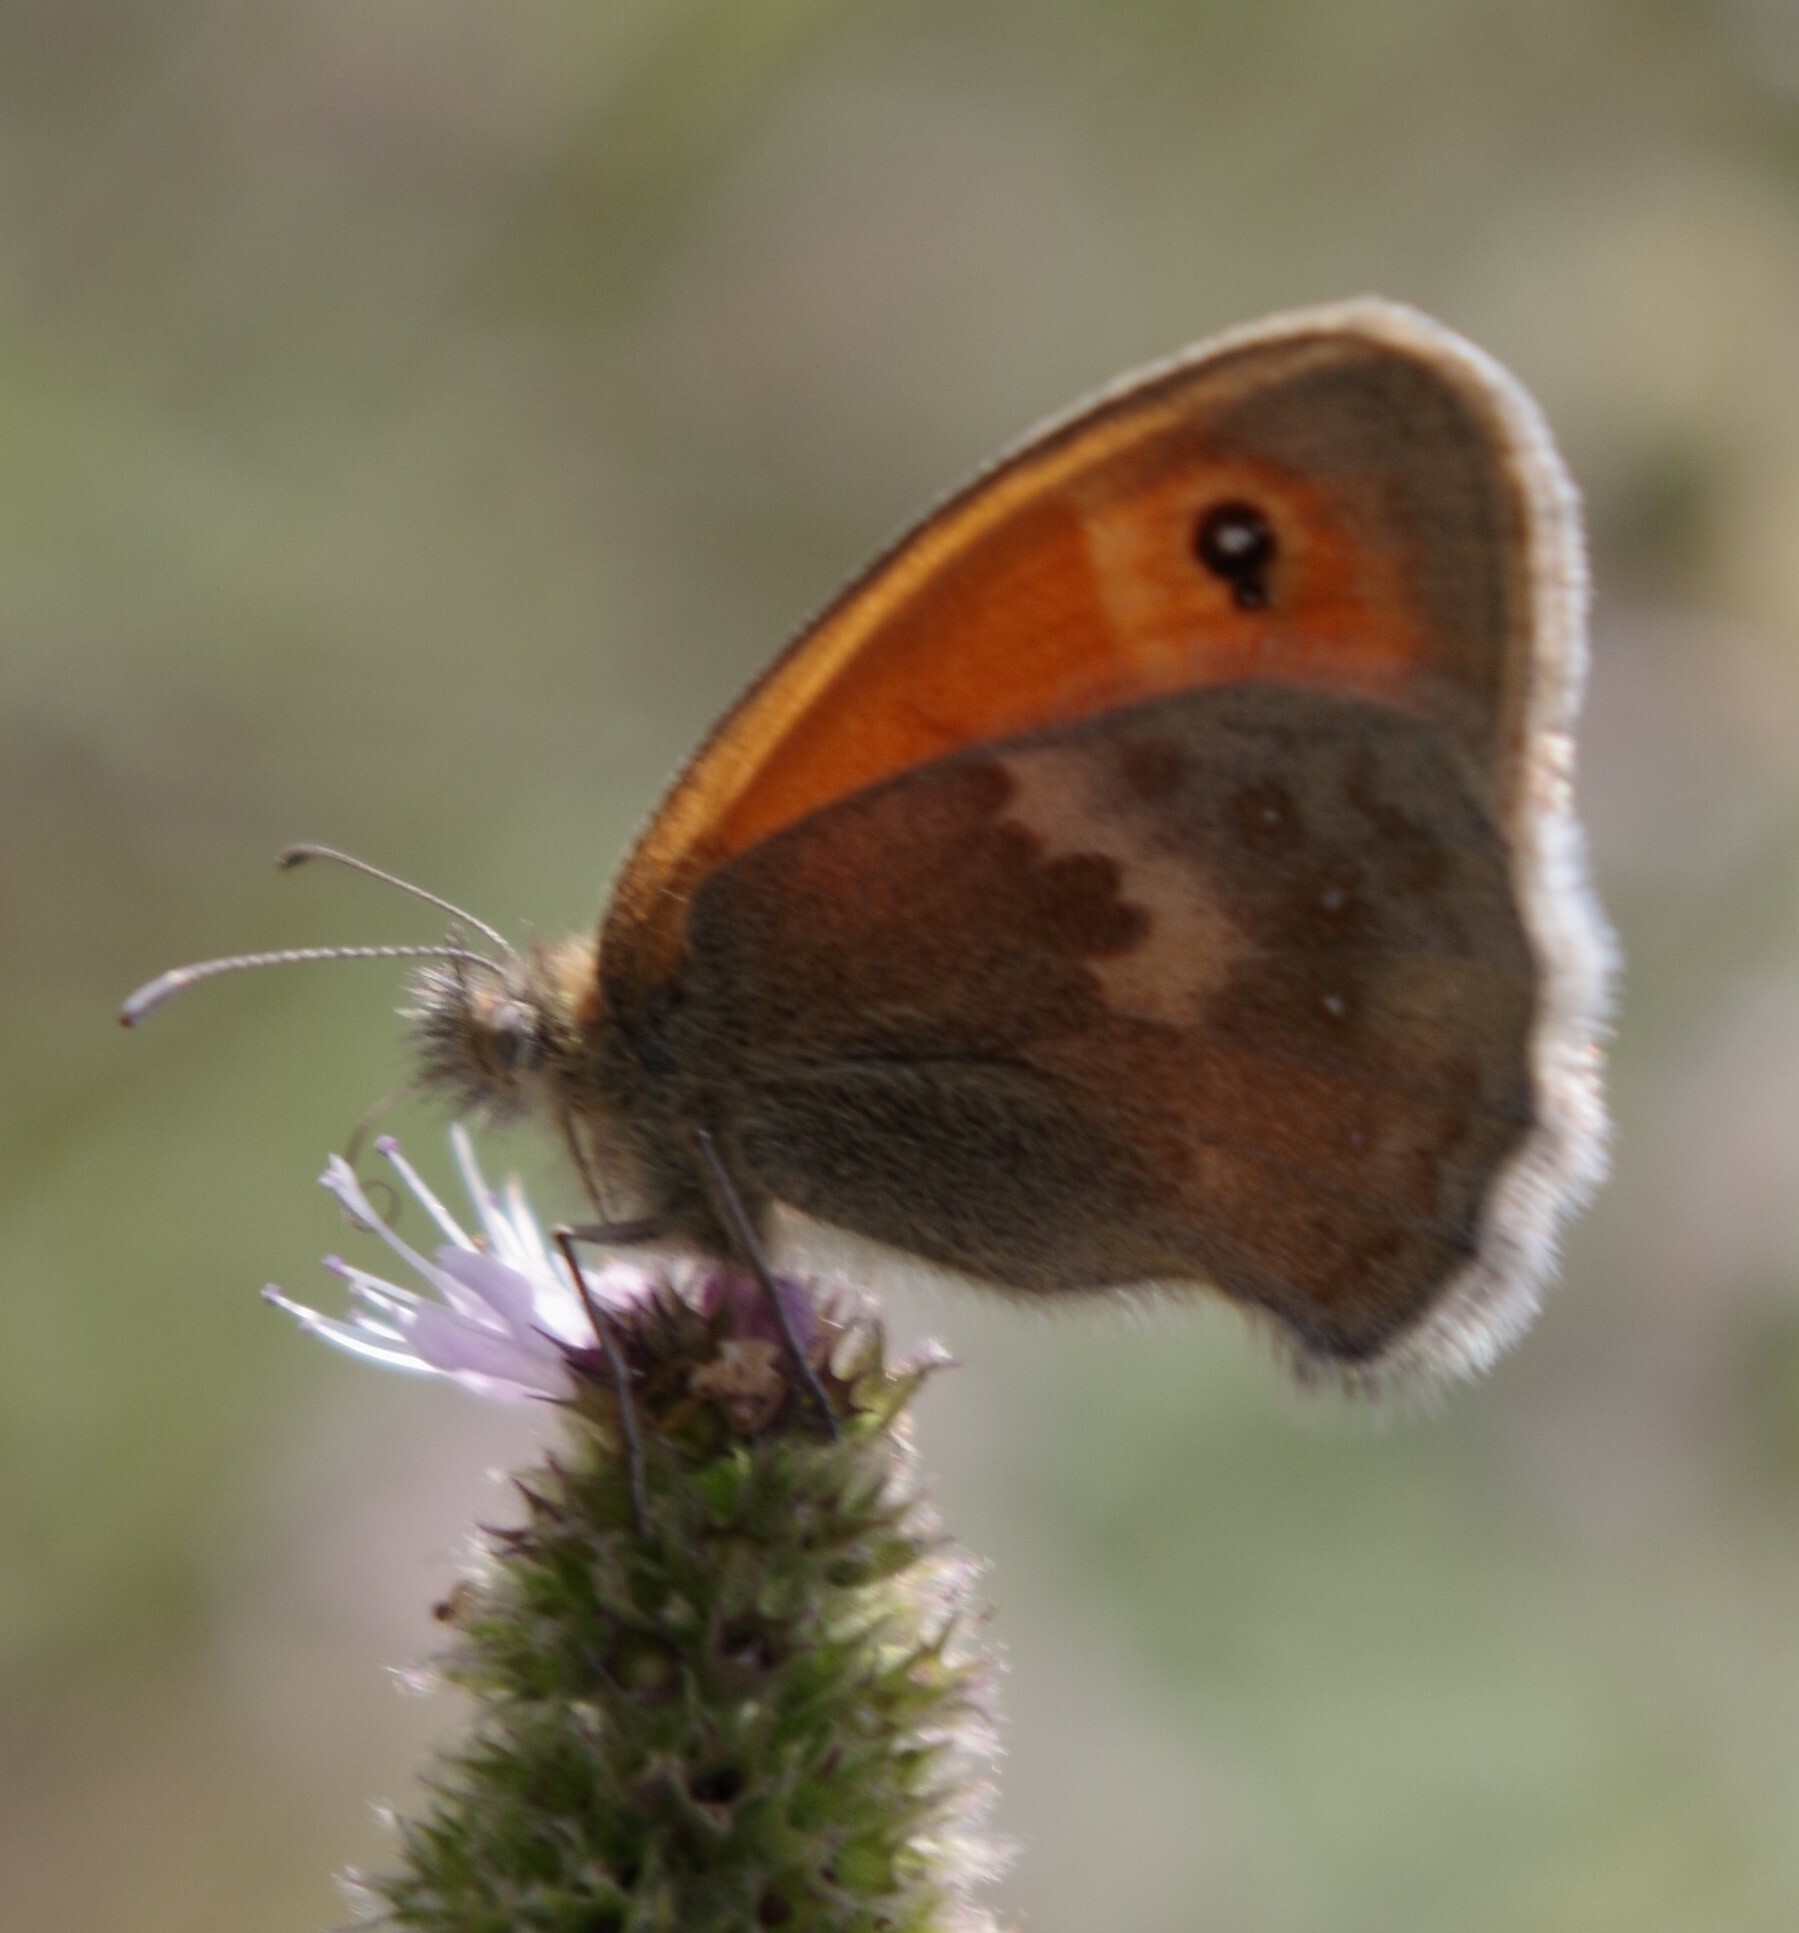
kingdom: Animalia
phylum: Arthropoda
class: Insecta
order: Lepidoptera
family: Nymphalidae
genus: Coenonympha
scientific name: Coenonympha pamphilus
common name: Small heath
